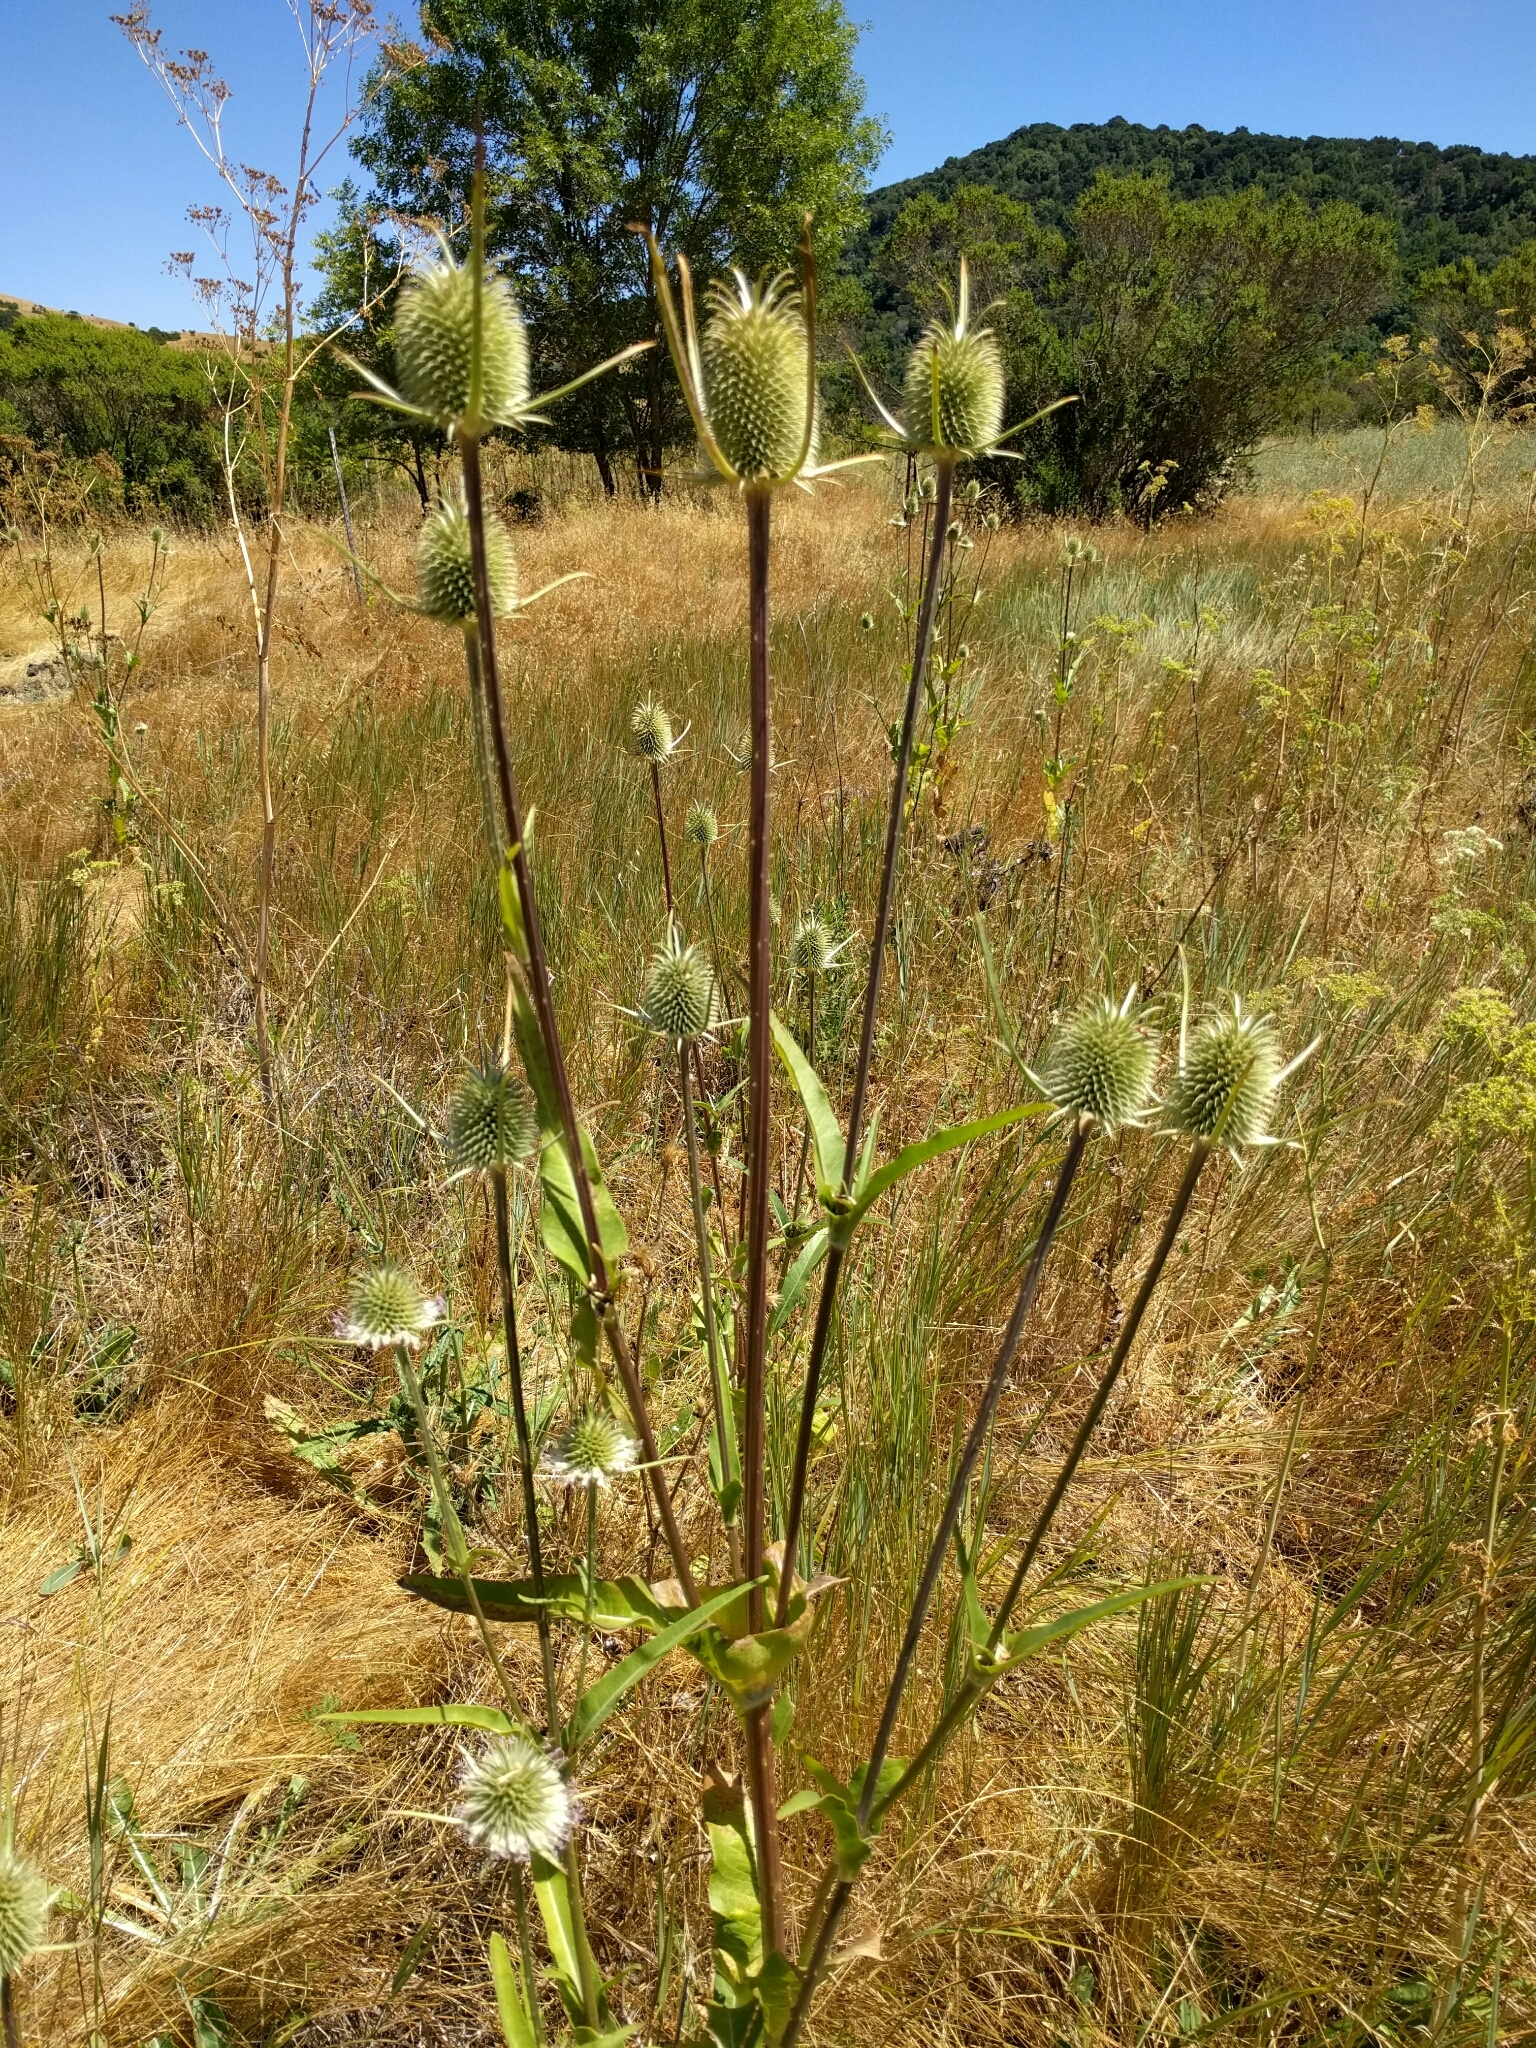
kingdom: Plantae
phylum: Tracheophyta
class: Magnoliopsida
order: Dipsacales
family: Caprifoliaceae
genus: Dipsacus
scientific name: Dipsacus sativus
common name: Fuller's teasel
